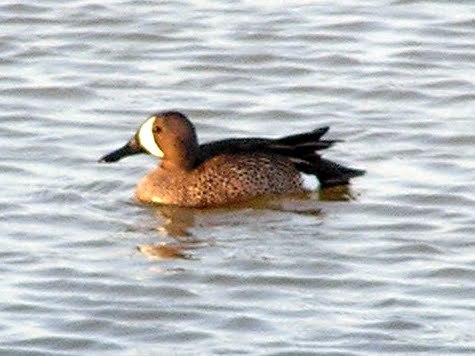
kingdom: Animalia
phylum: Chordata
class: Aves
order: Anseriformes
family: Anatidae
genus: Spatula
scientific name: Spatula discors
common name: Blue-winged teal
